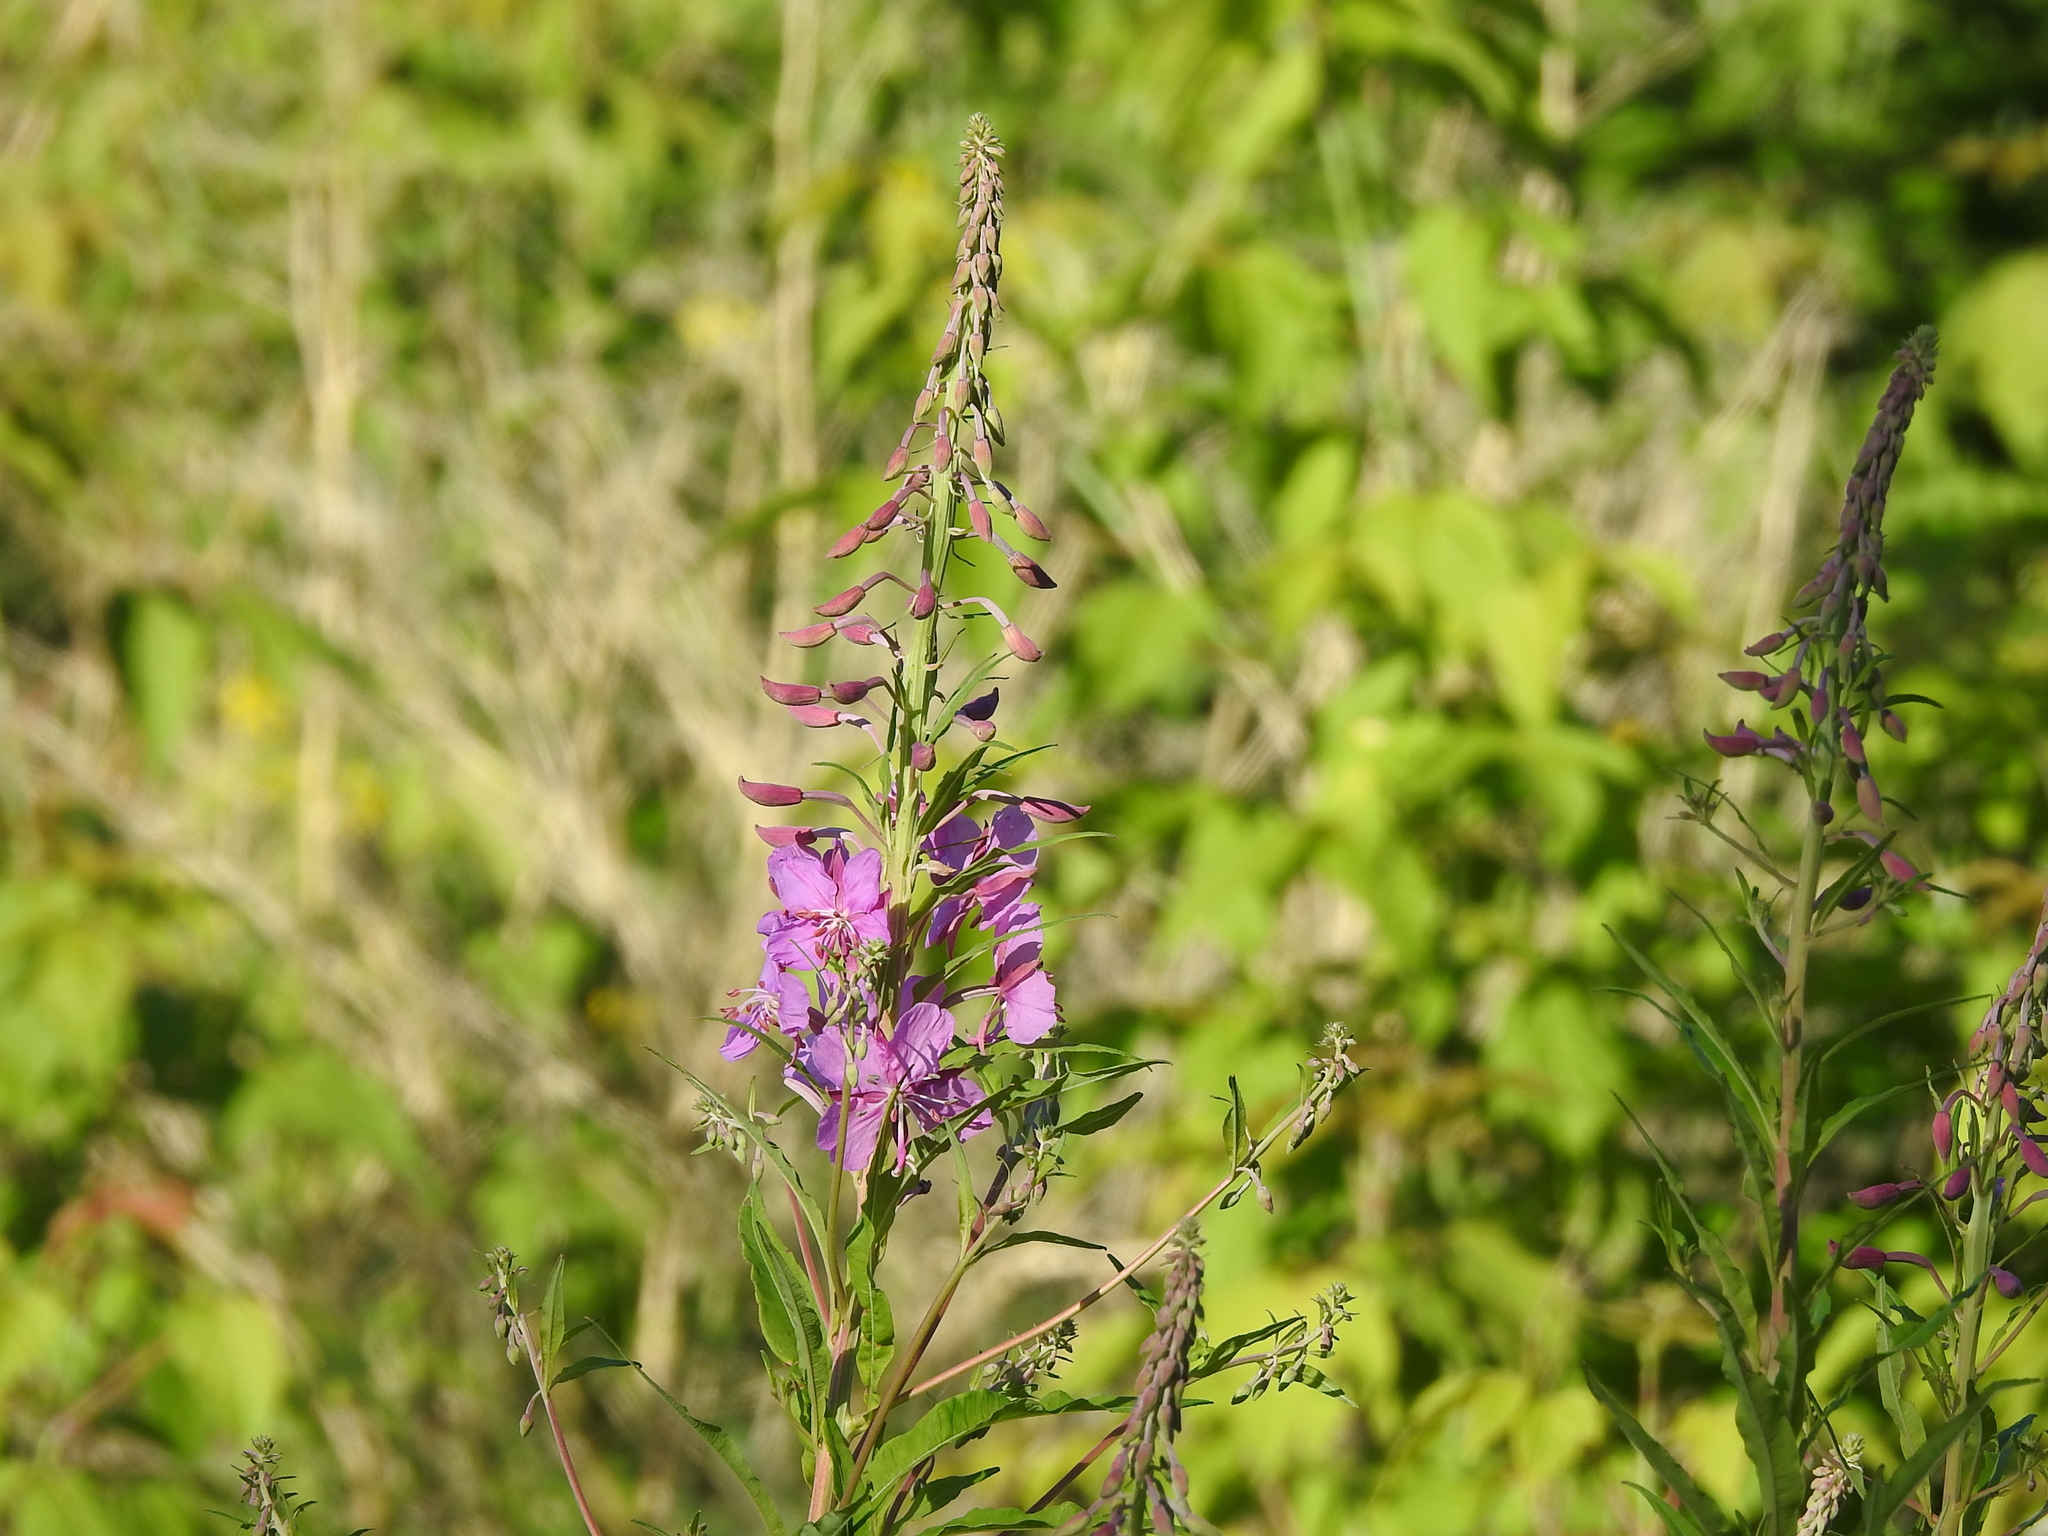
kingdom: Plantae
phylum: Tracheophyta
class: Magnoliopsida
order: Myrtales
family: Onagraceae
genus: Chamaenerion
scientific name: Chamaenerion angustifolium
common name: Fireweed
